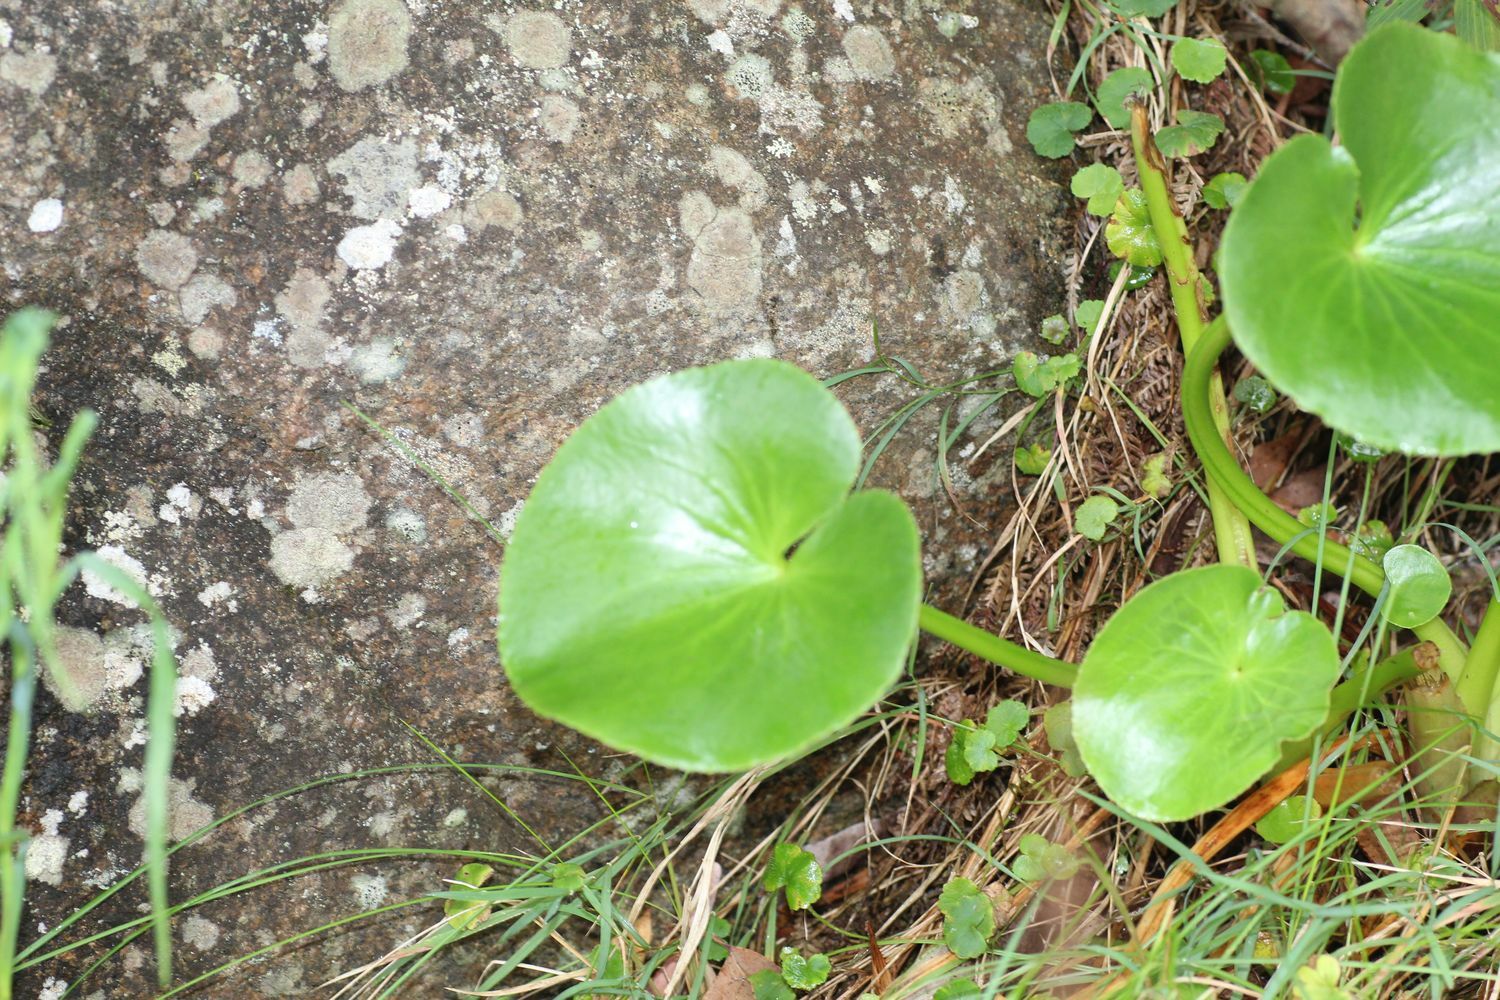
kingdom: Plantae
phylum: Tracheophyta
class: Magnoliopsida
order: Asterales
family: Menyanthaceae
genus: Ornduffia
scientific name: Ornduffia calthifolia
